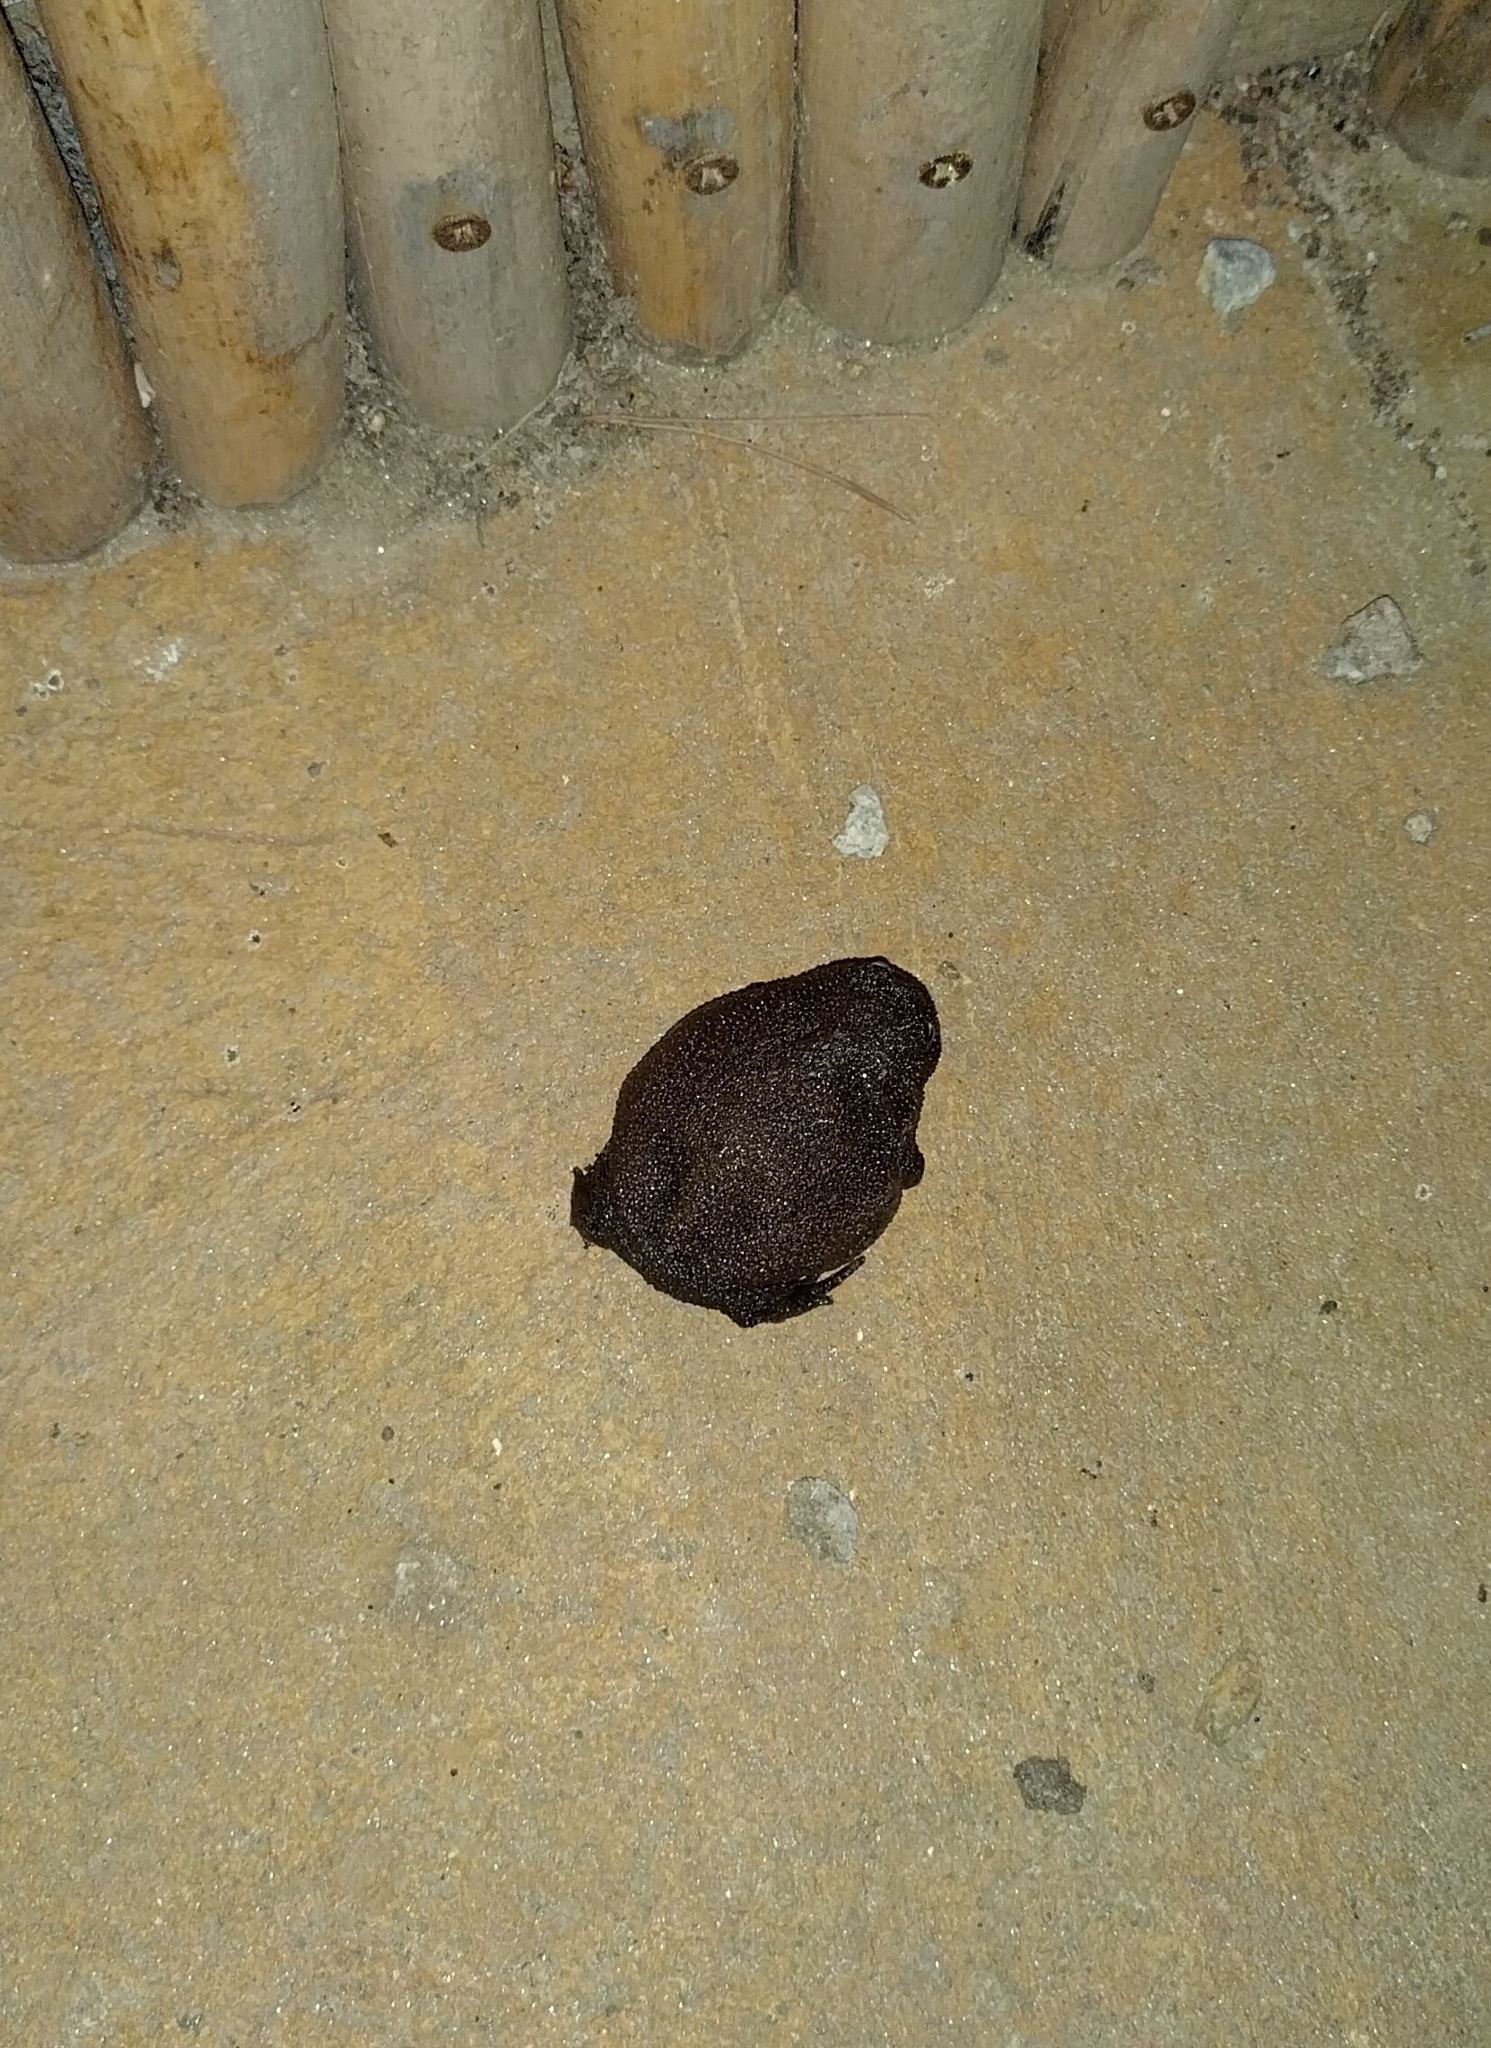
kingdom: Animalia
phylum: Chordata
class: Amphibia
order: Anura
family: Brevicipitidae
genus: Breviceps
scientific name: Breviceps fuscus
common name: Black rain frog
